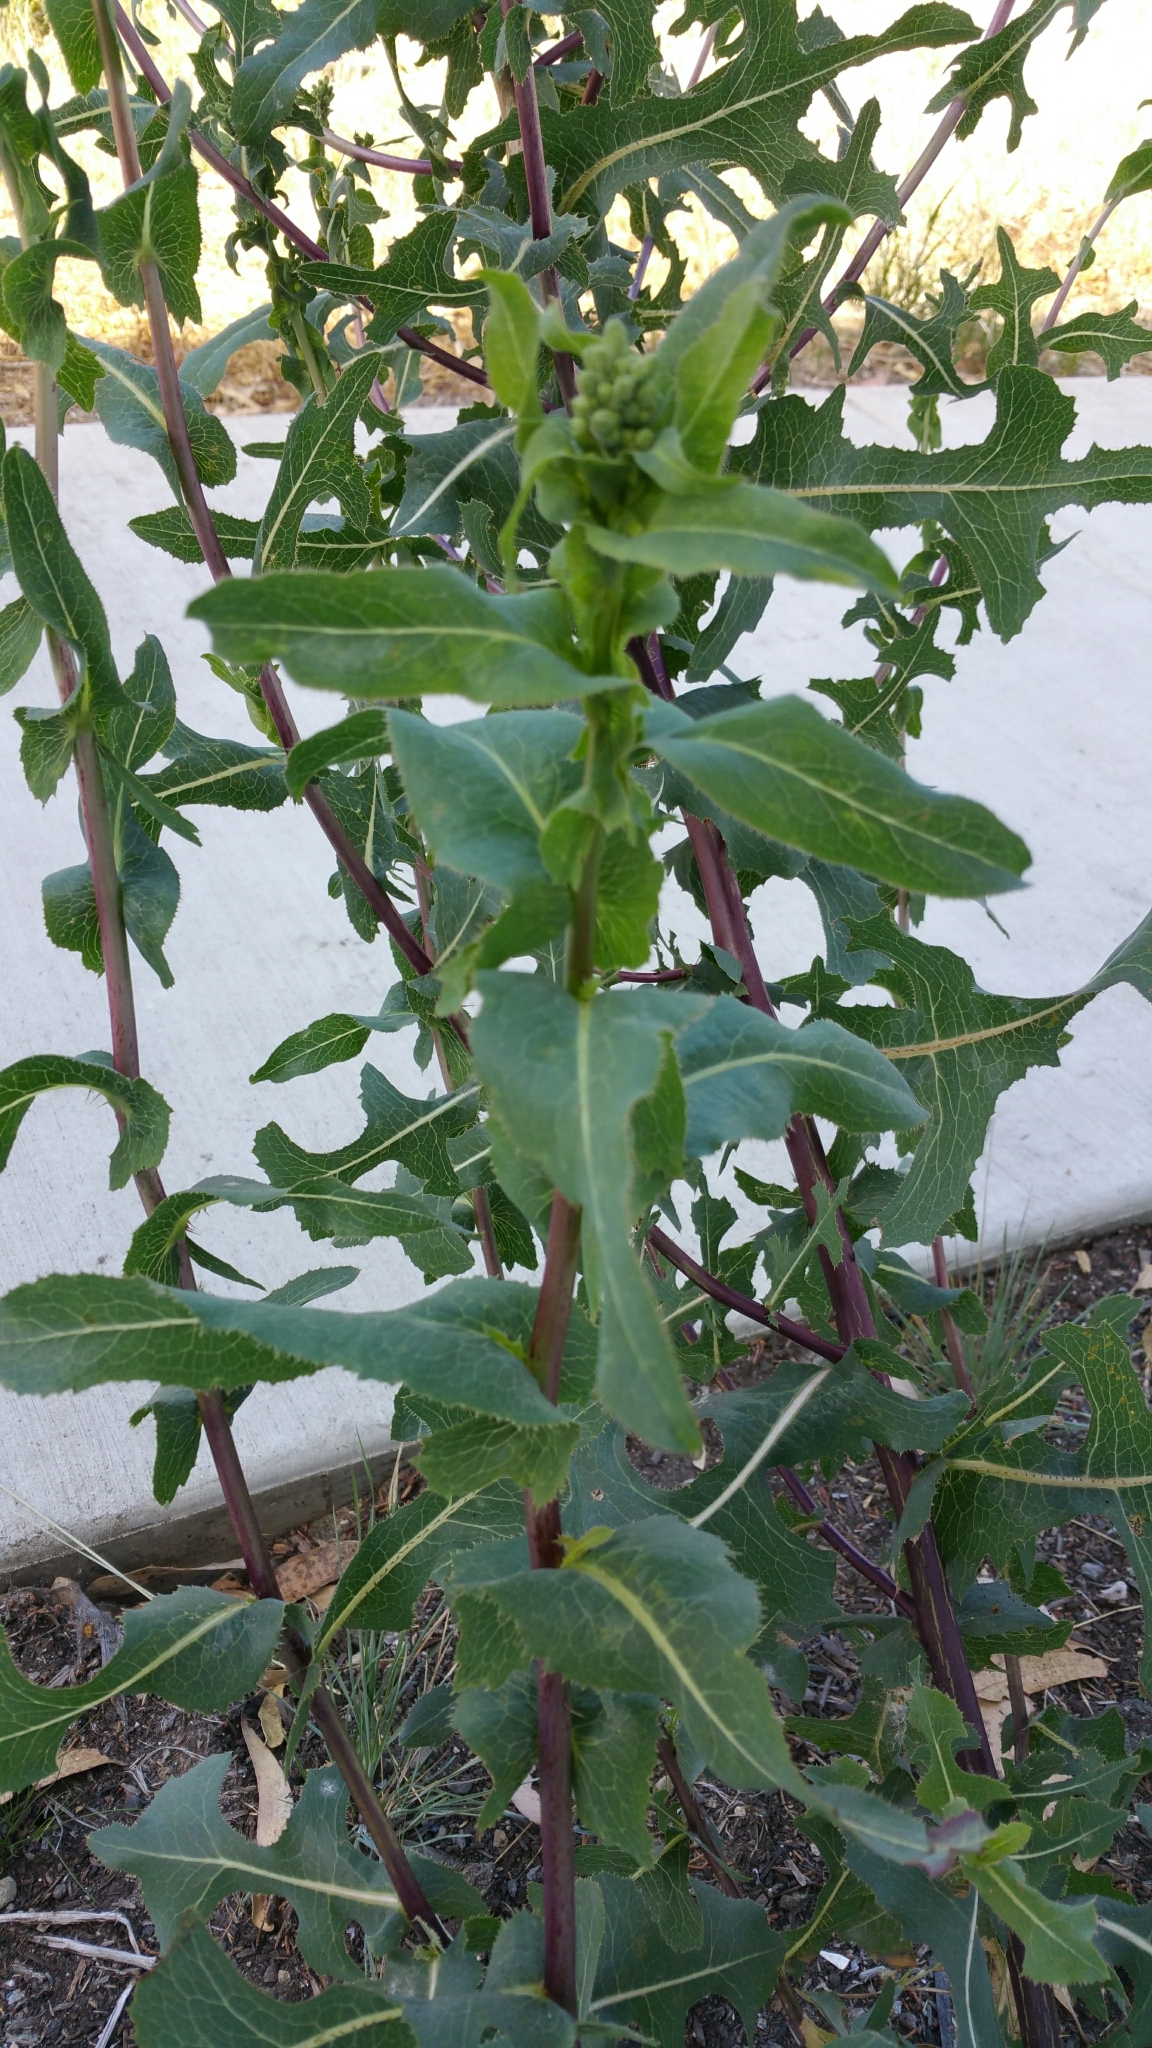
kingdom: Plantae
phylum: Tracheophyta
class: Magnoliopsida
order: Asterales
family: Asteraceae
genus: Lactuca
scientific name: Lactuca serriola
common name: Prickly lettuce
